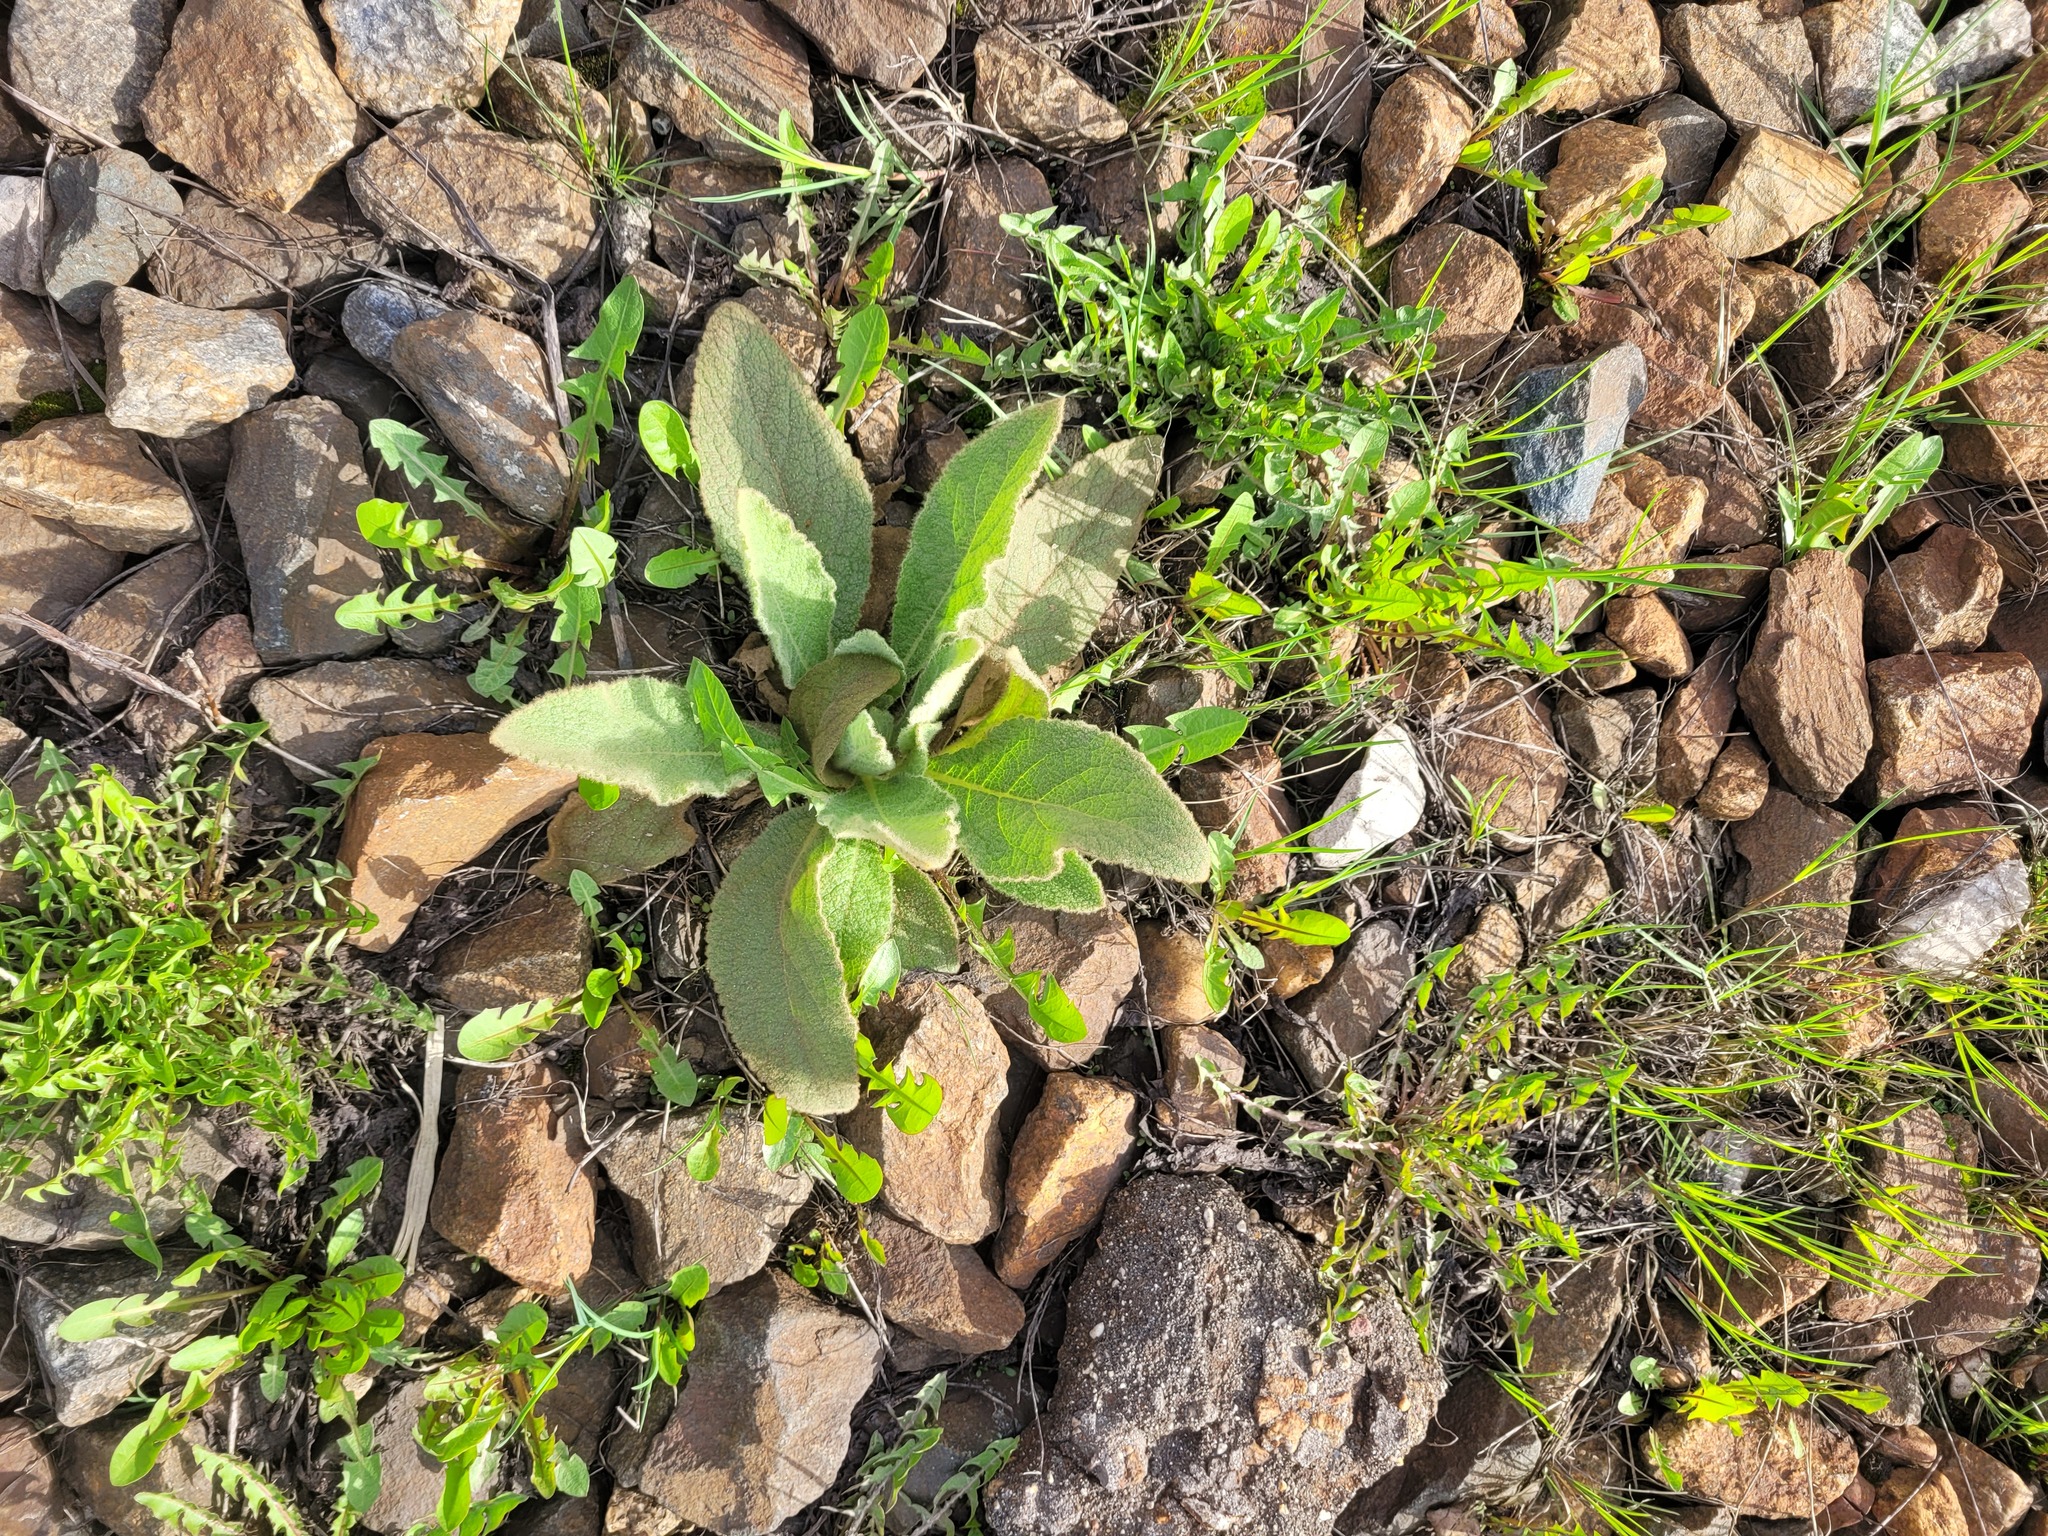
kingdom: Plantae
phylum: Tracheophyta
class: Magnoliopsida
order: Lamiales
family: Scrophulariaceae
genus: Verbascum
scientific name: Verbascum thapsus
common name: Common mullein
